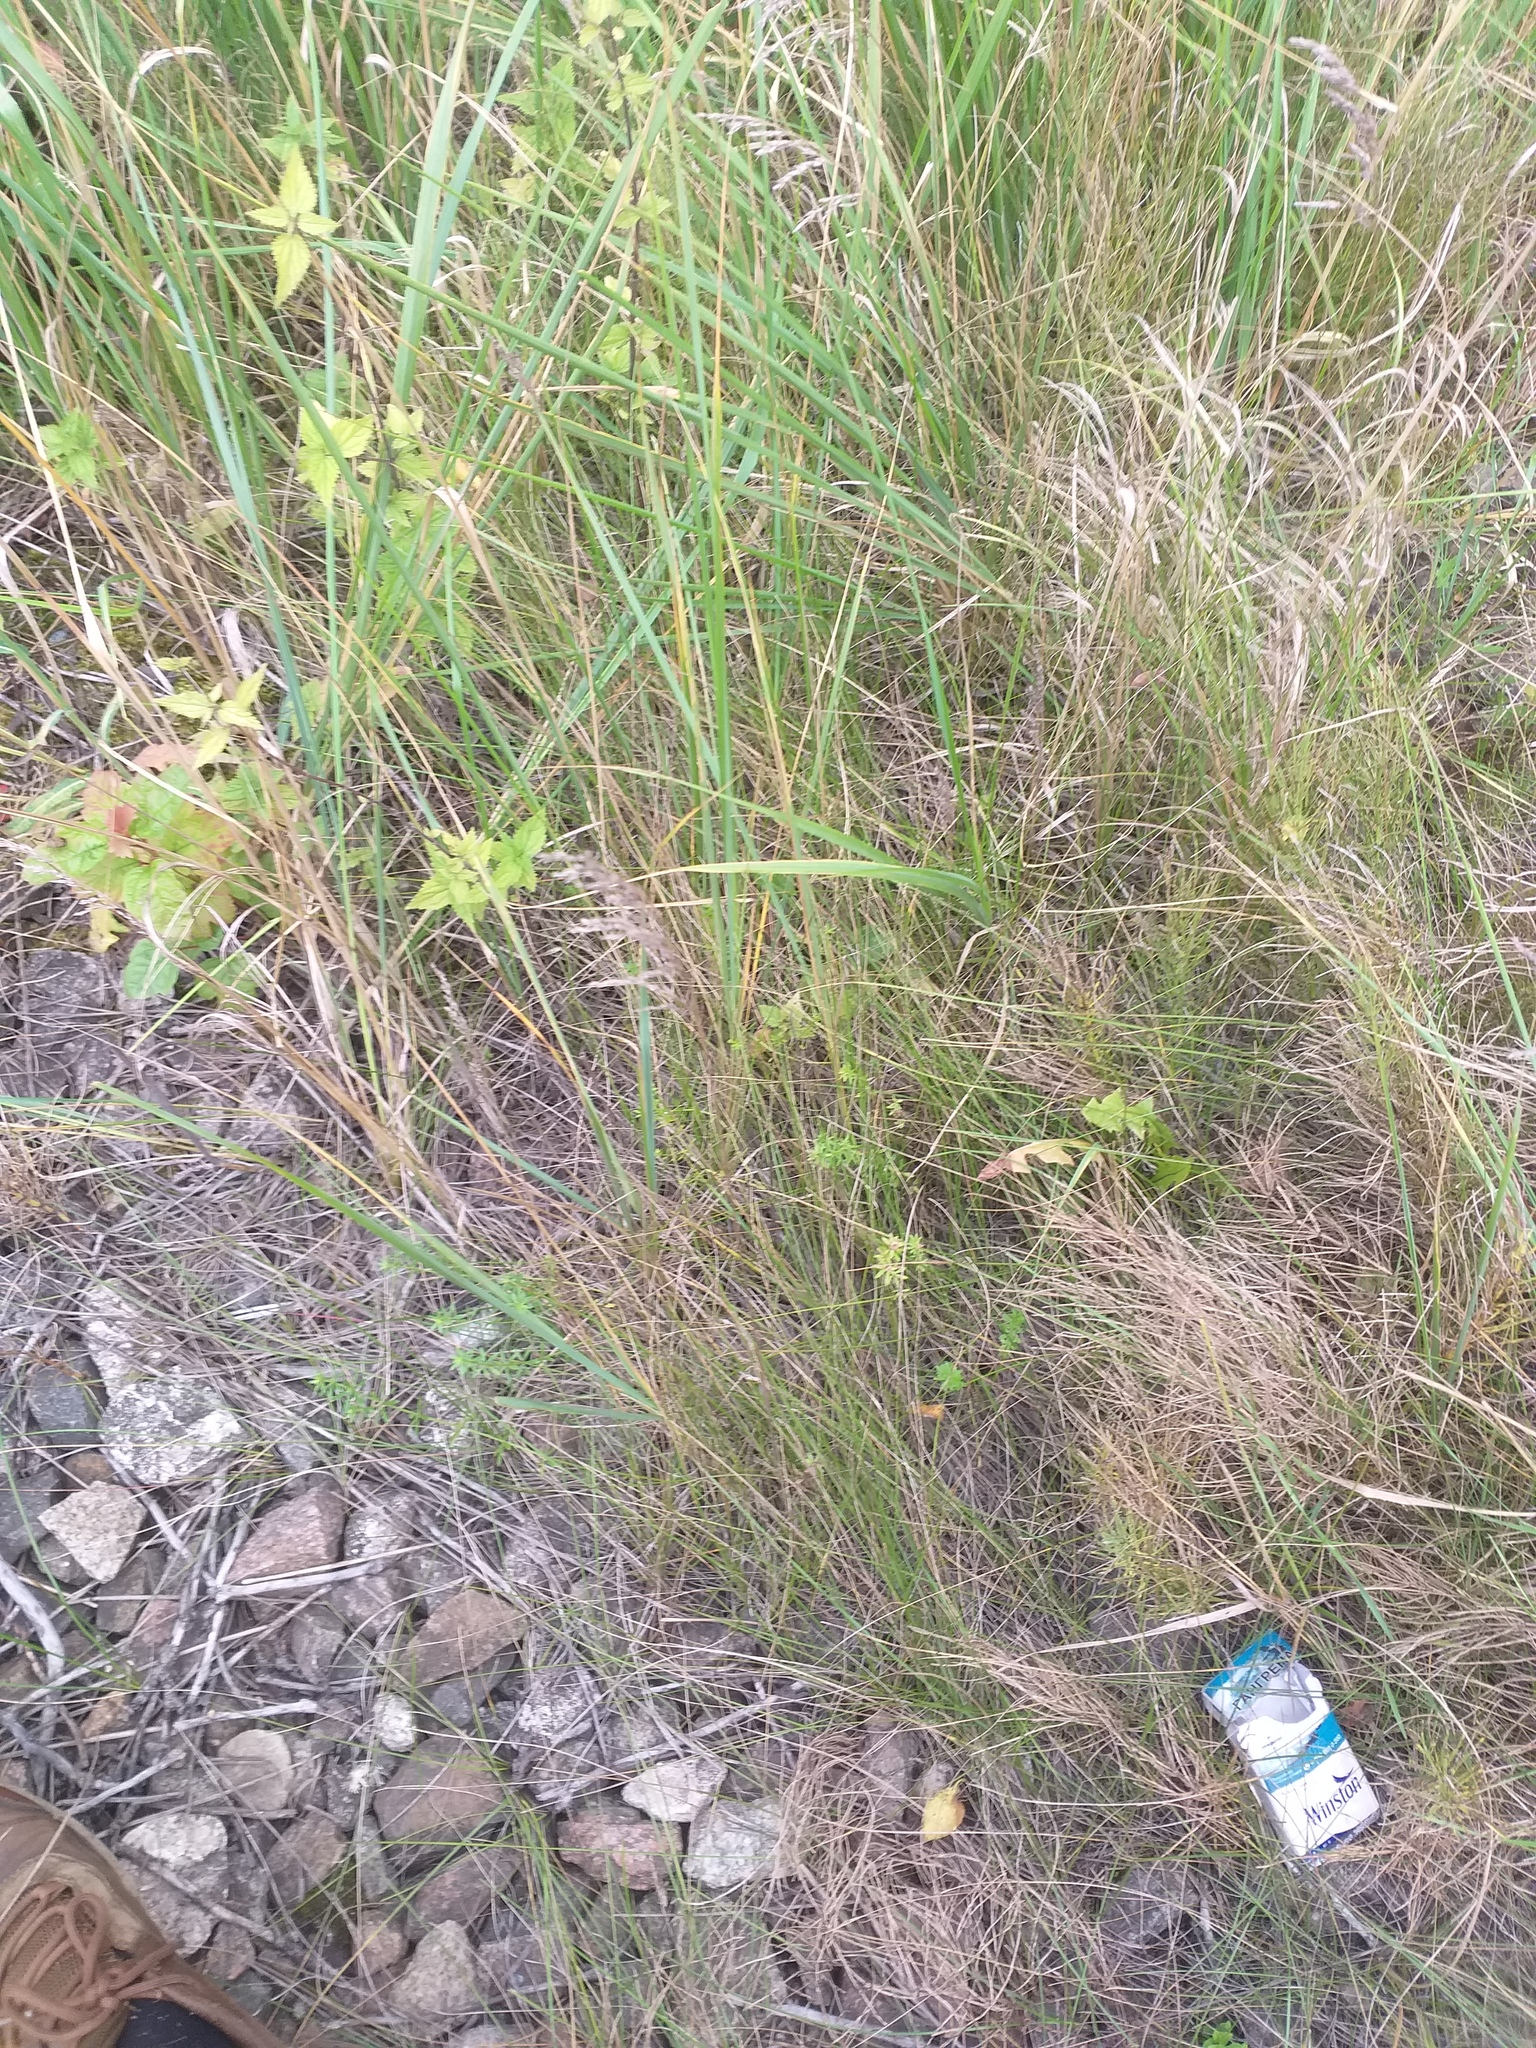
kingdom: Plantae
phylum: Tracheophyta
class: Liliopsida
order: Poales
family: Poaceae
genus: Poa
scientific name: Poa angustifolia
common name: Narrow-leaved meadow-grass
